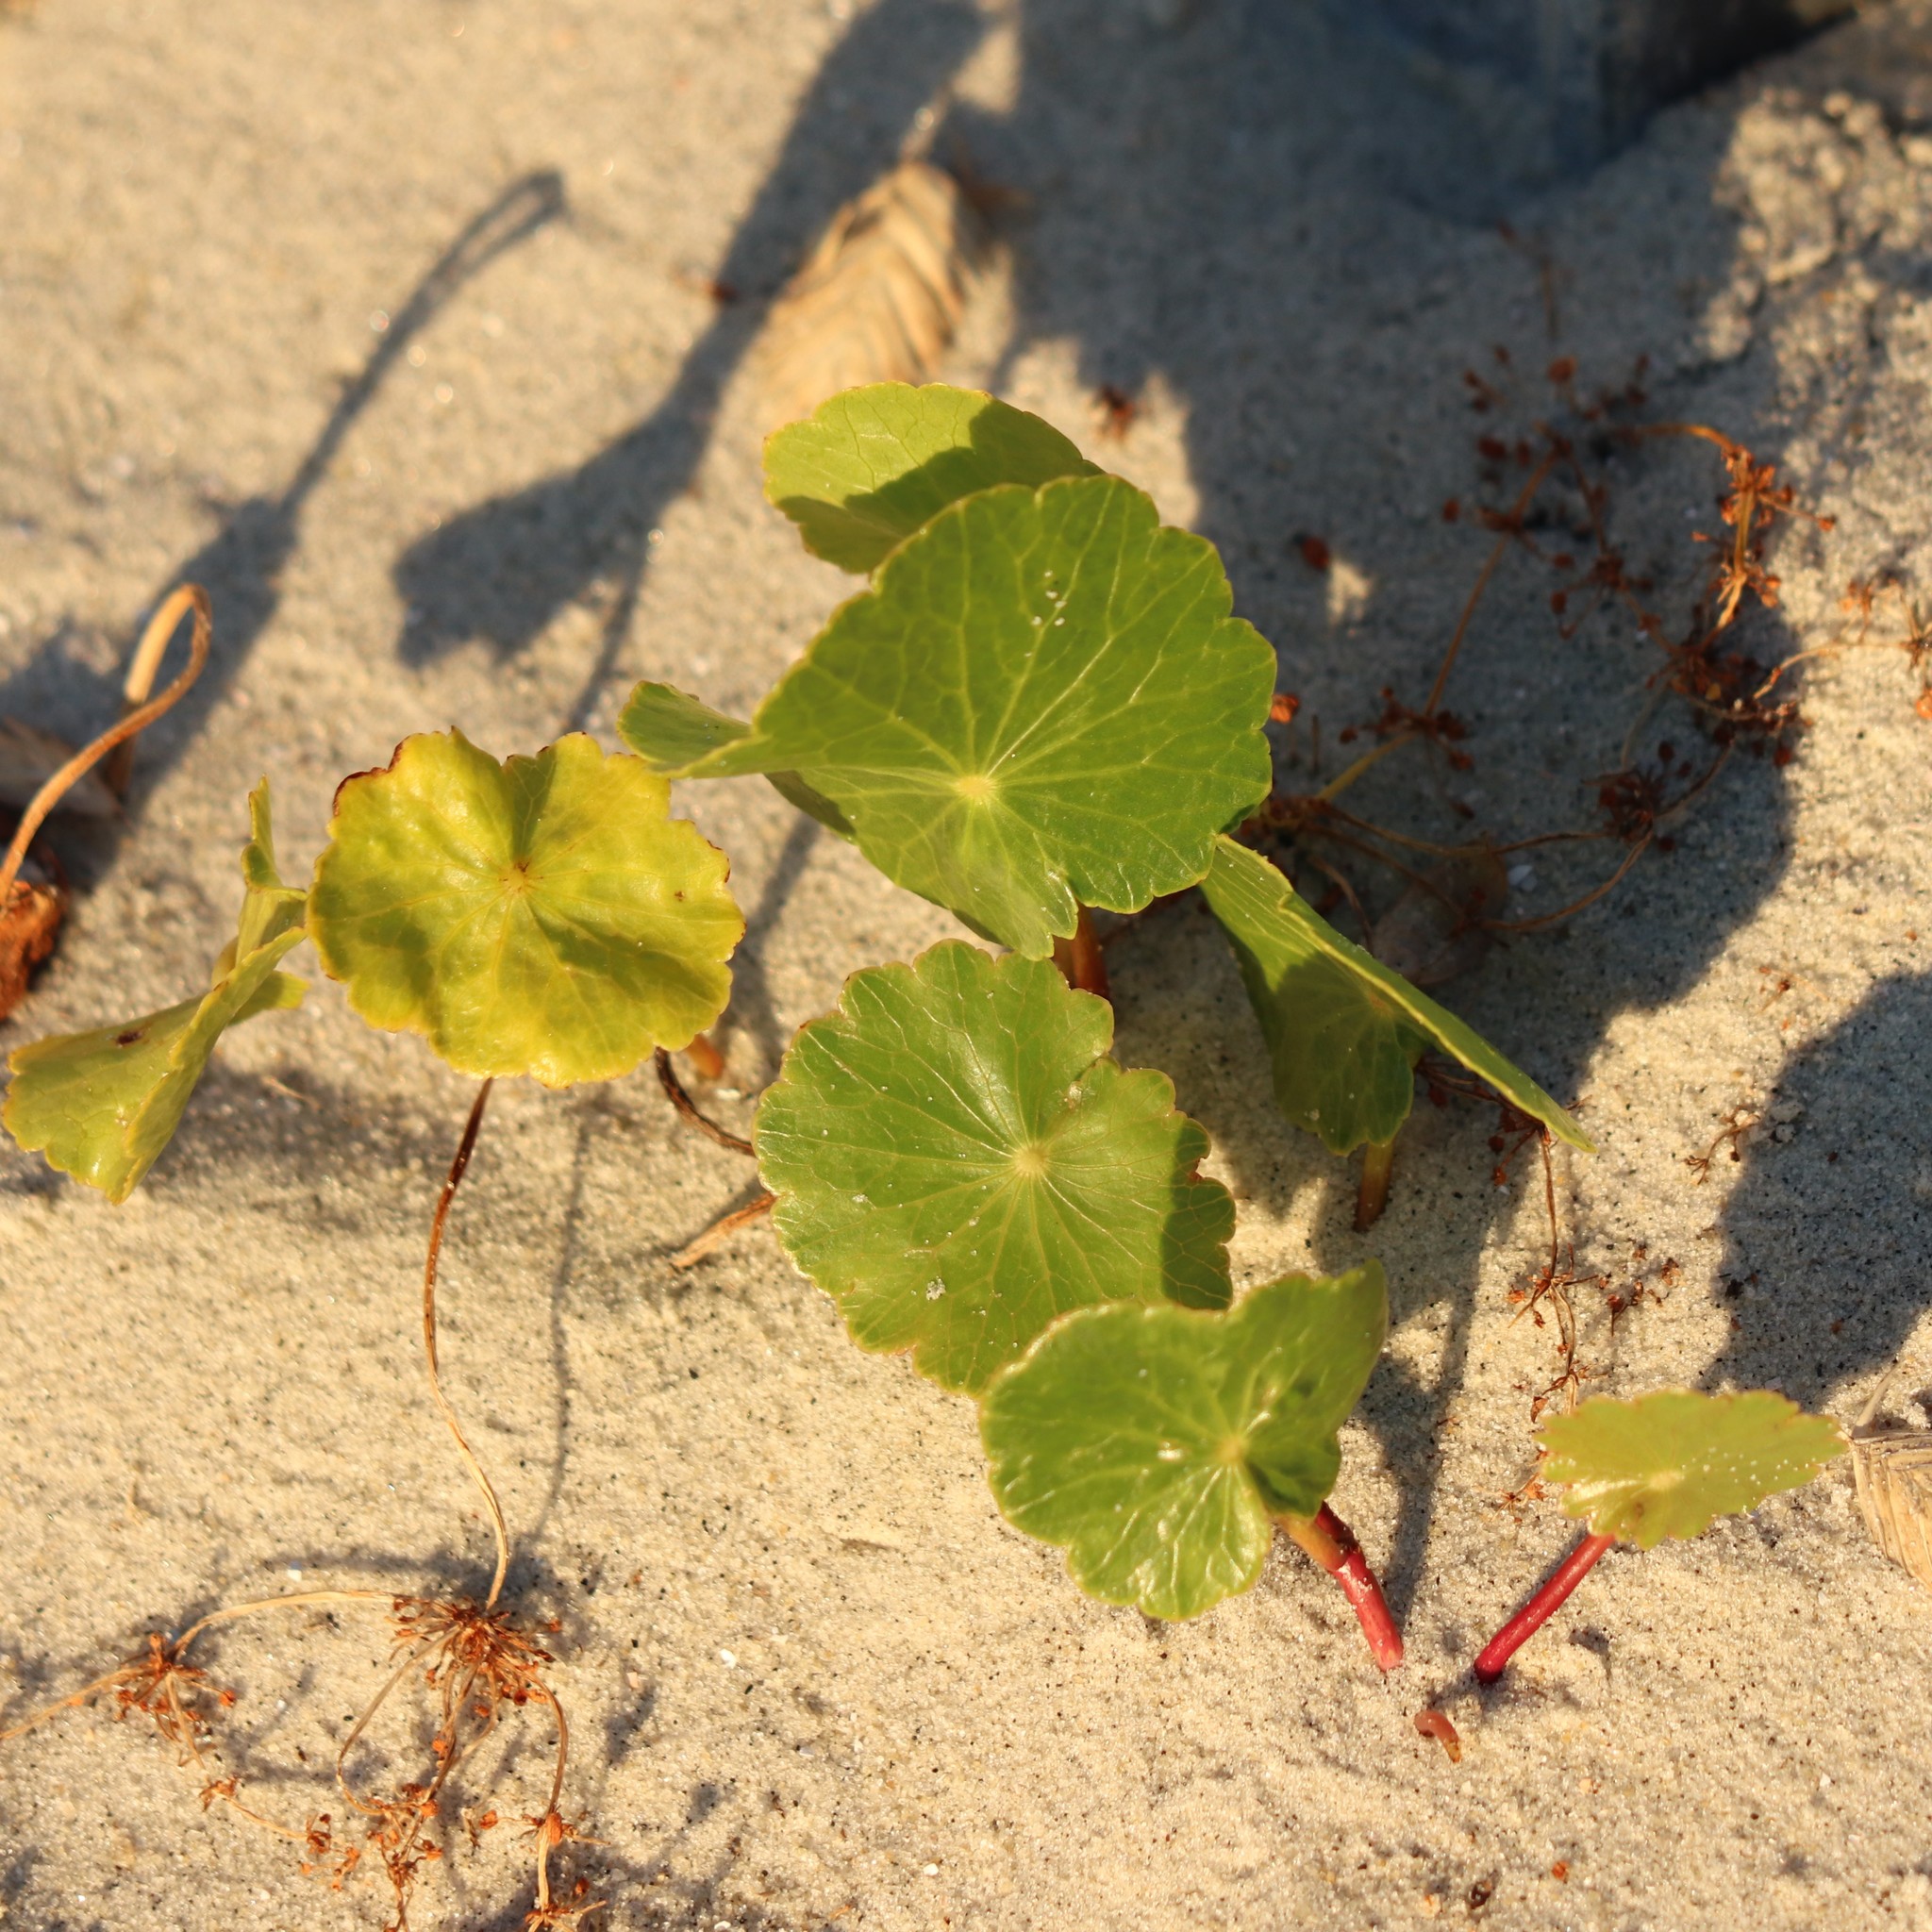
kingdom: Plantae
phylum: Tracheophyta
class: Magnoliopsida
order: Apiales
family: Araliaceae
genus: Hydrocotyle
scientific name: Hydrocotyle bonariensis
